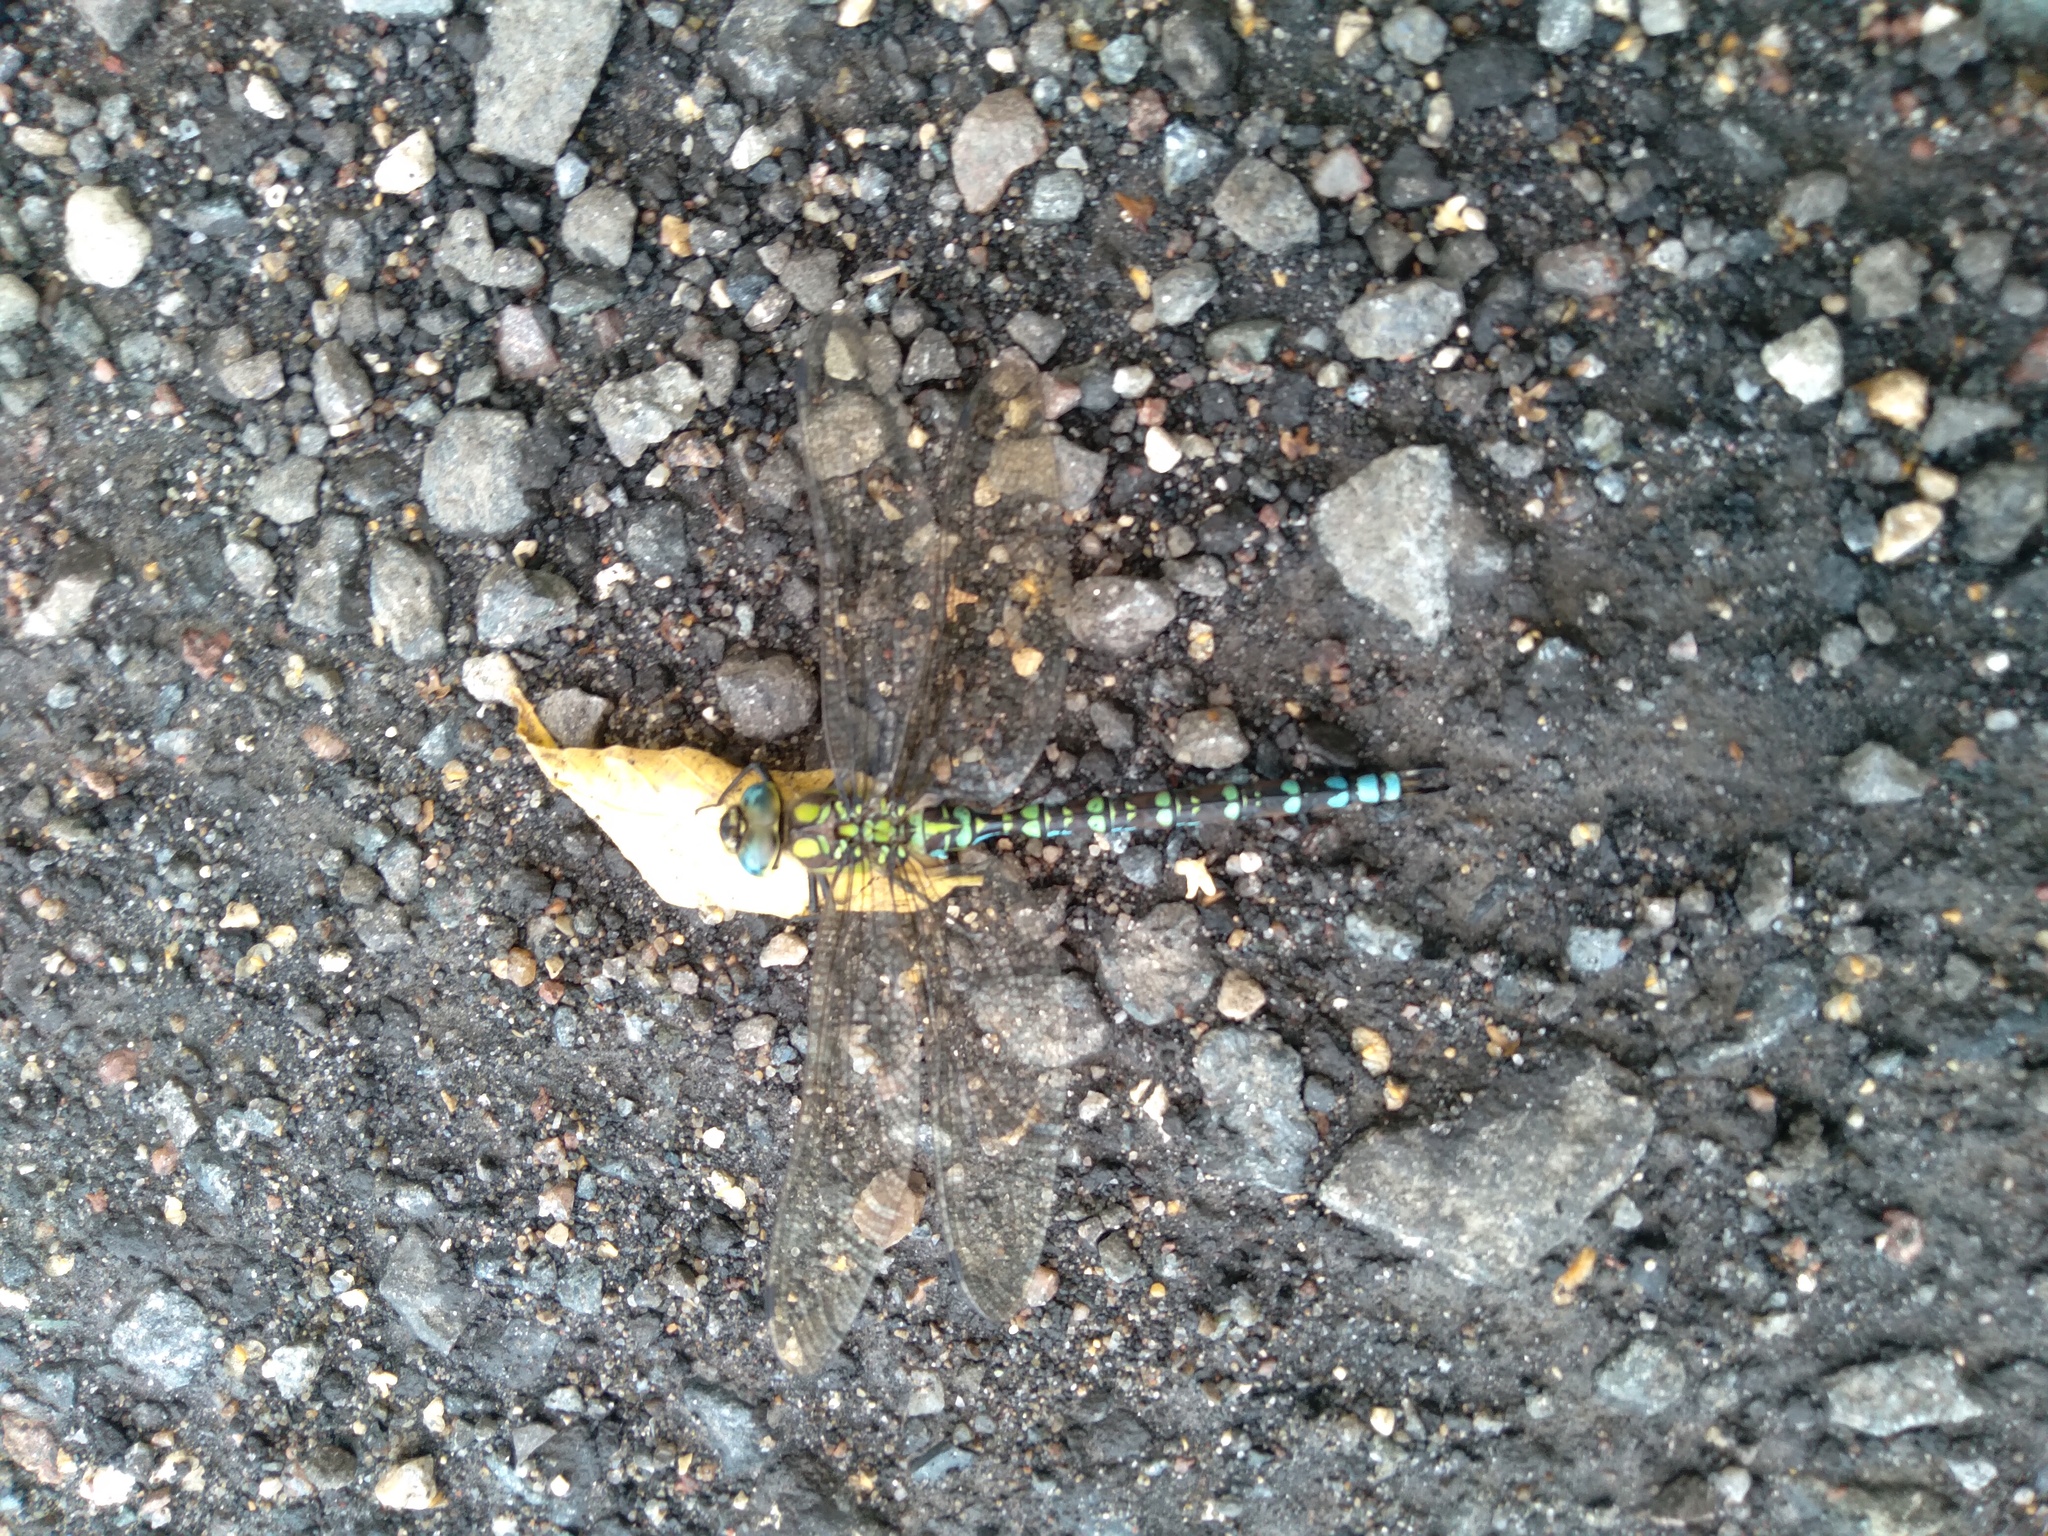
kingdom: Animalia
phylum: Arthropoda
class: Insecta
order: Odonata
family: Aeshnidae
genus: Aeshna
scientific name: Aeshna cyanea
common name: Southern hawker
